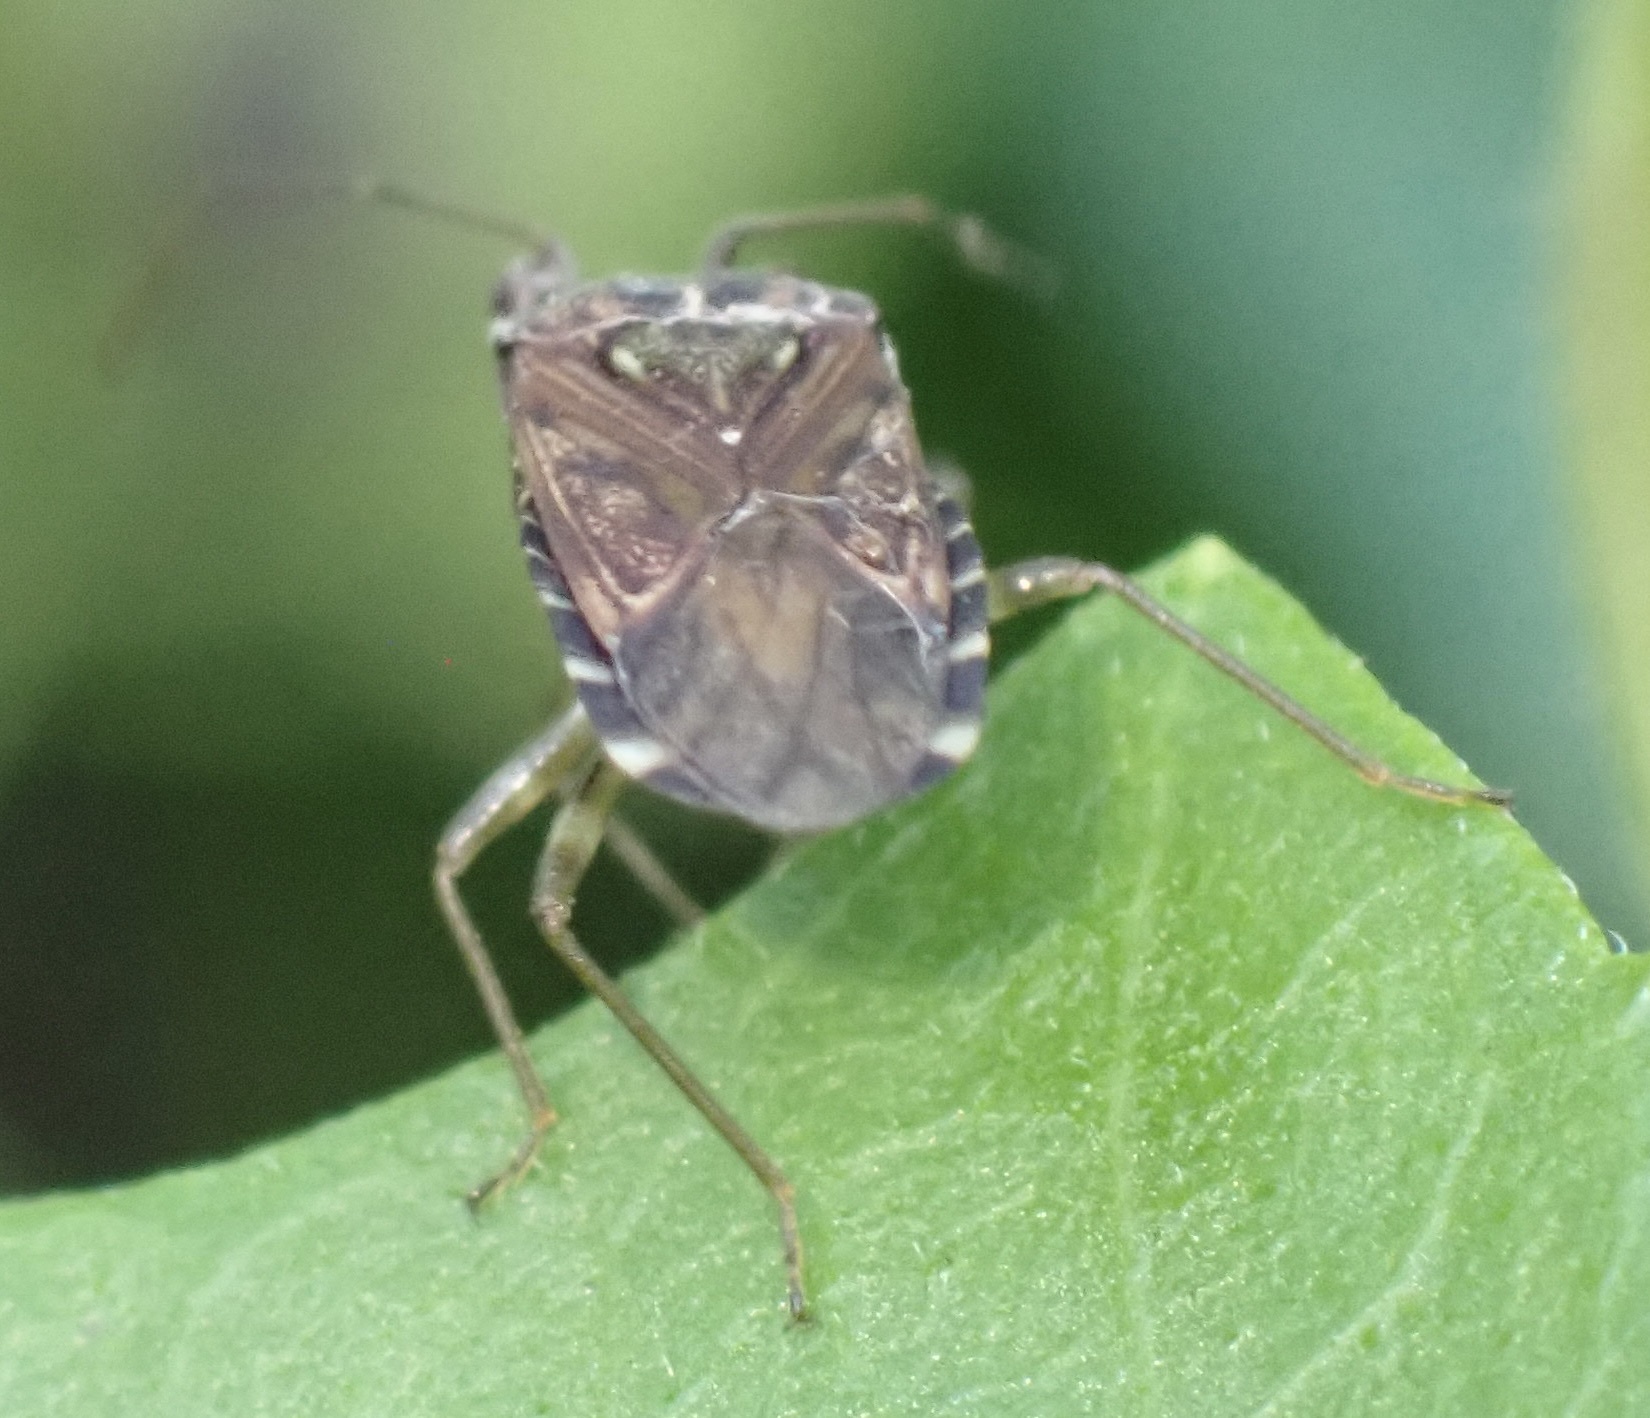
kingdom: Animalia
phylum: Arthropoda
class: Insecta
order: Hemiptera
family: Meschiidae
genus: Heissothignus
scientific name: Heissothignus baitetus
